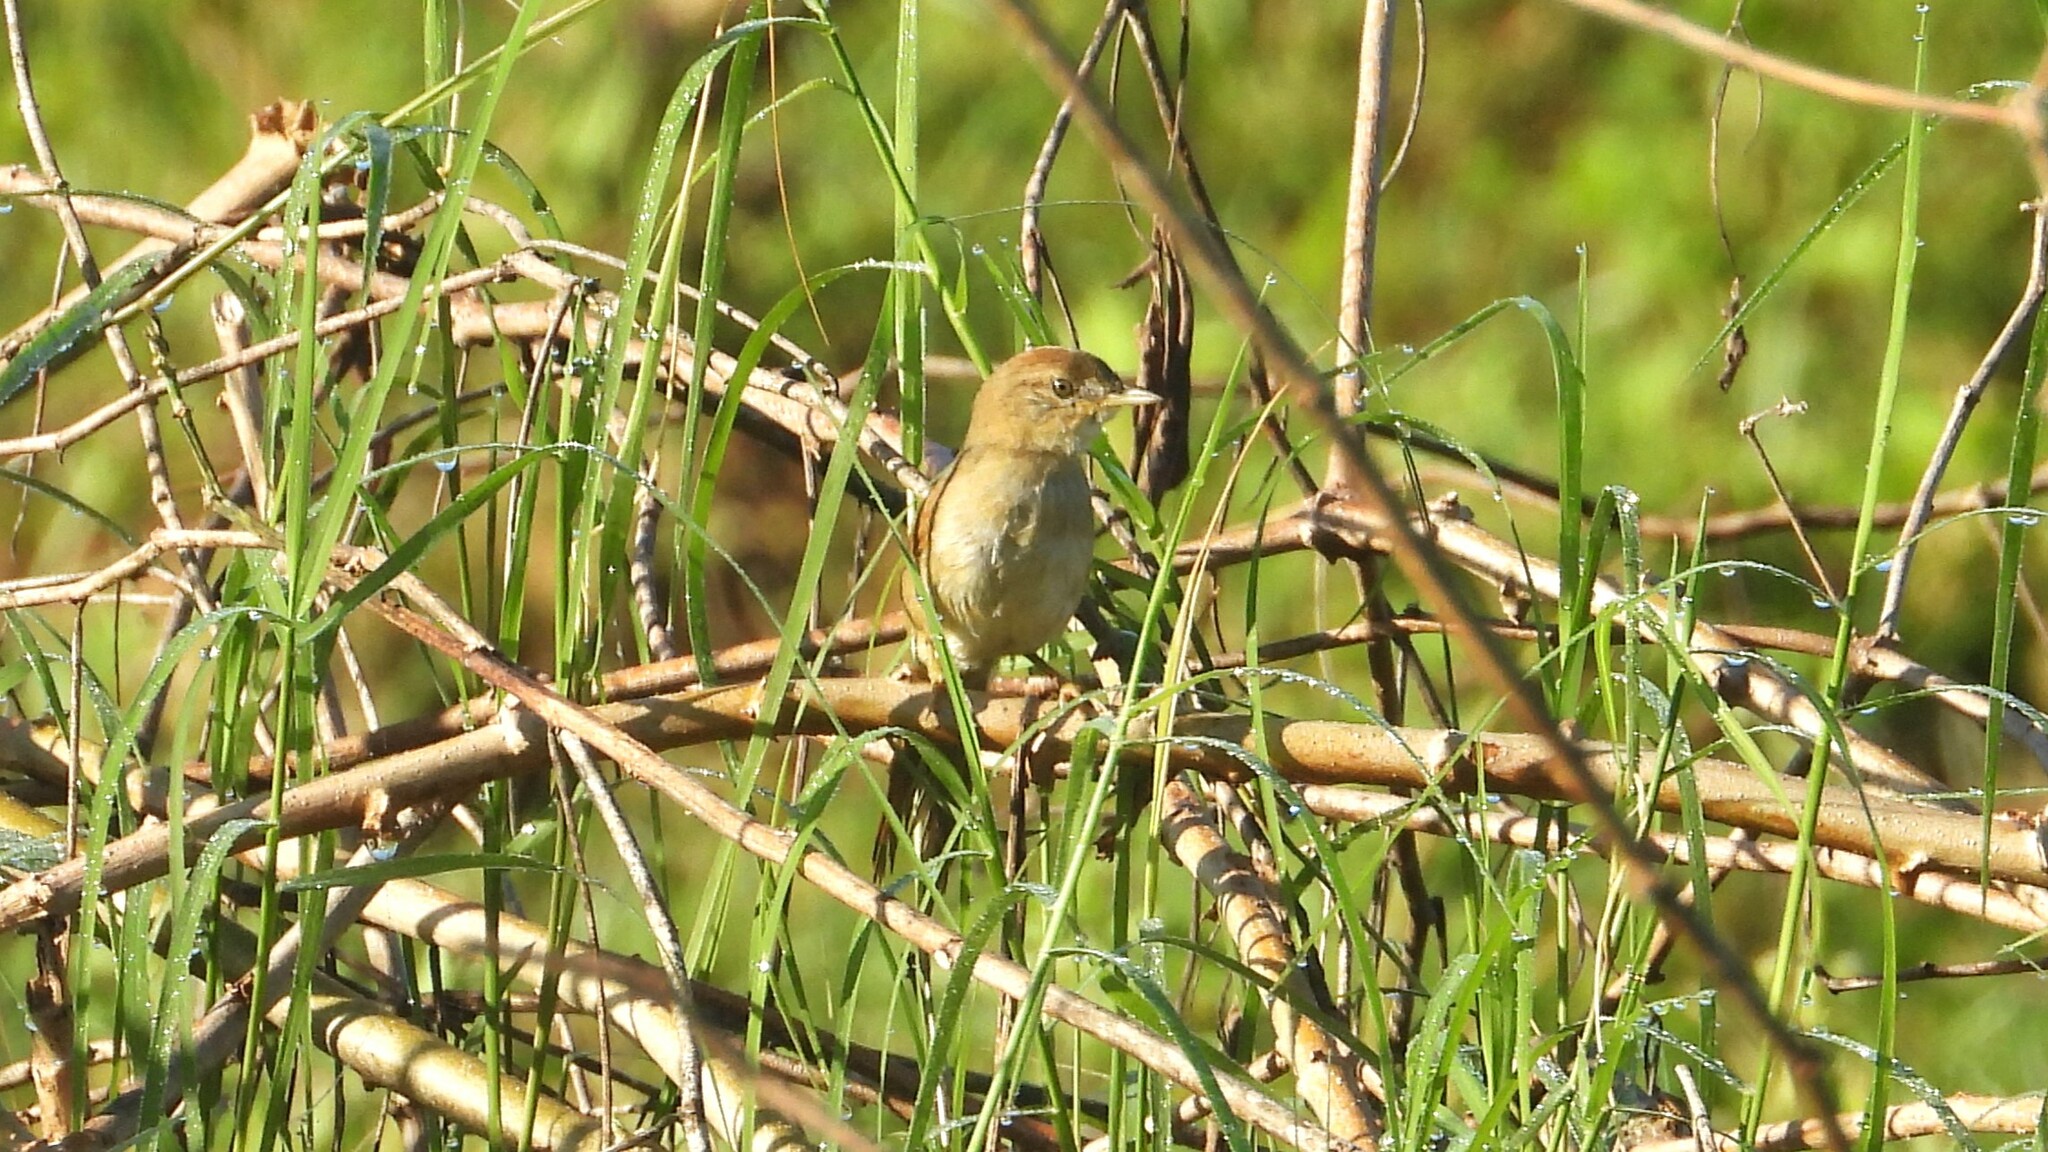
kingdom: Animalia
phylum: Chordata
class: Aves
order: Passeriformes
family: Furnariidae
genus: Synallaxis
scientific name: Synallaxis albescens
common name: Pale-breasted spinetail
